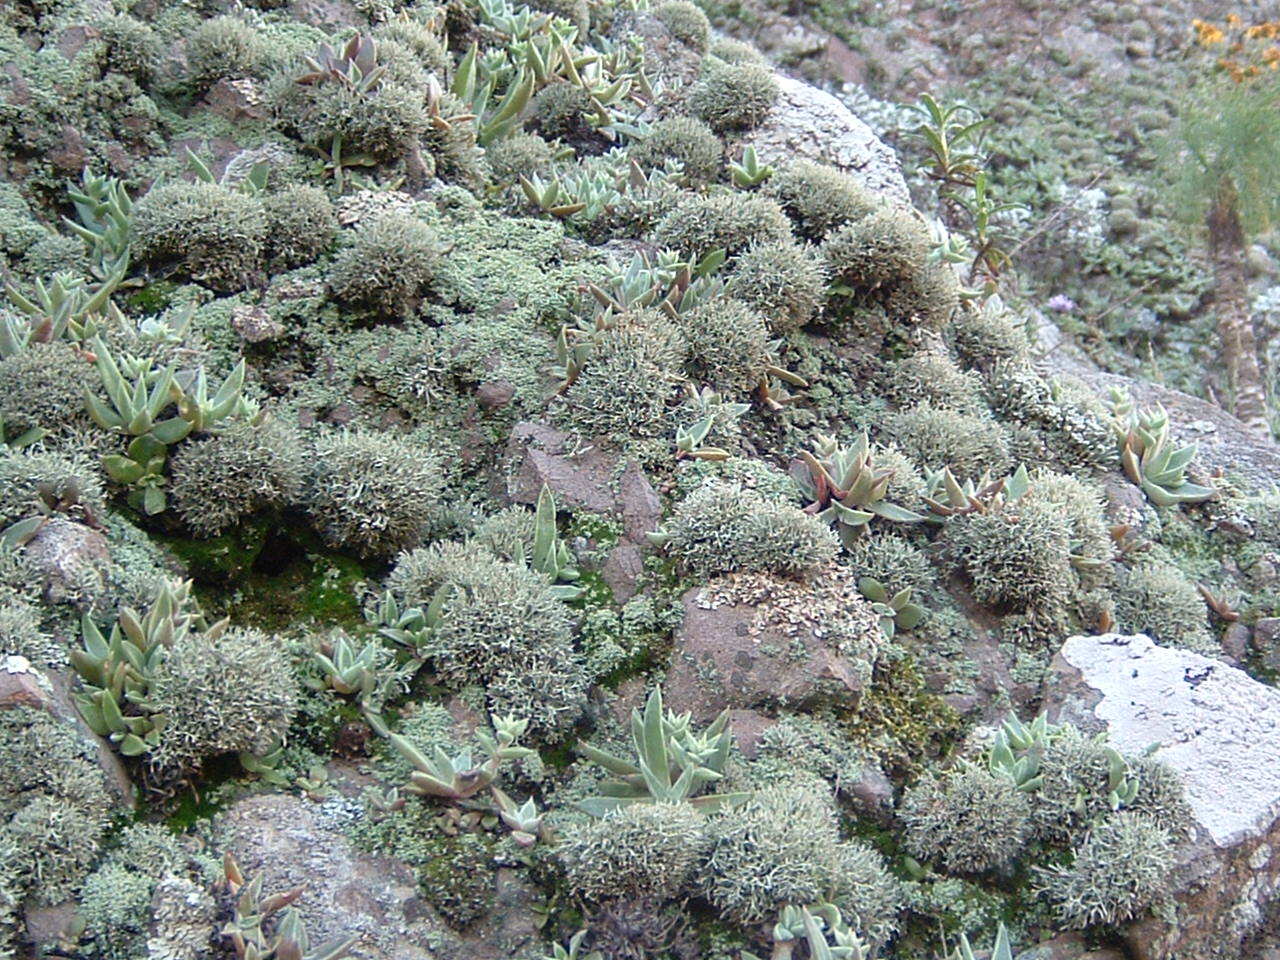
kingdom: Plantae
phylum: Tracheophyta
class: Magnoliopsida
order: Saxifragales
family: Crassulaceae
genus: Dudleya
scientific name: Dudleya verityi
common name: Verity dudleya
